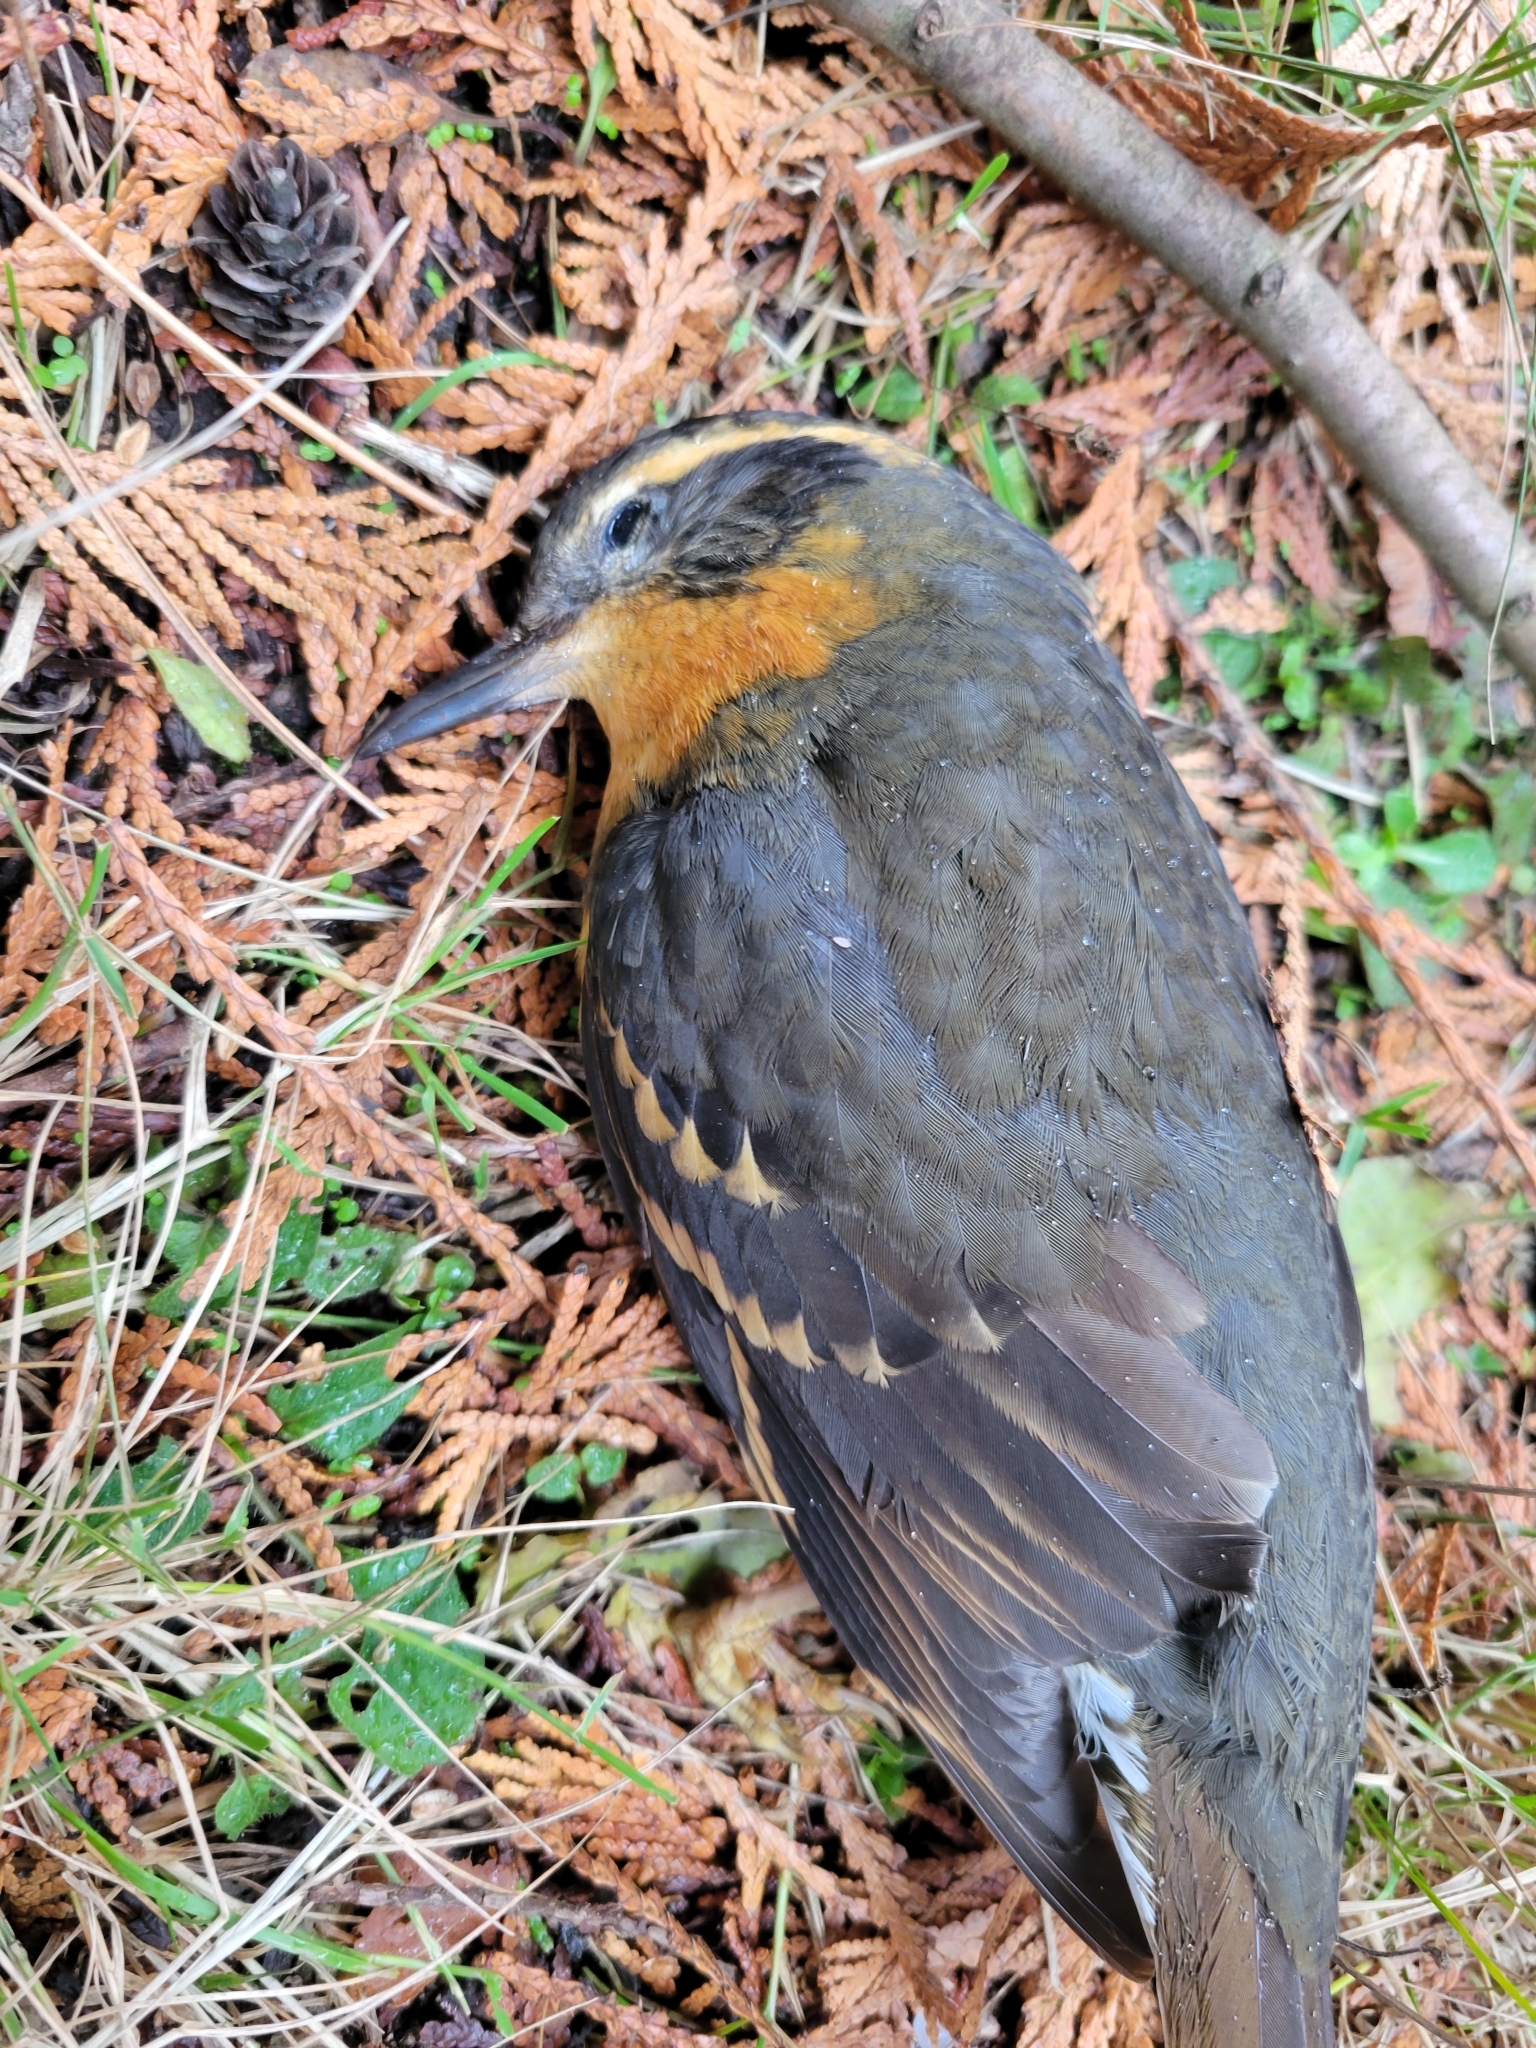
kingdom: Animalia
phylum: Chordata
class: Aves
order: Passeriformes
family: Turdidae
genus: Ixoreus
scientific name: Ixoreus naevius
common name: Varied thrush
